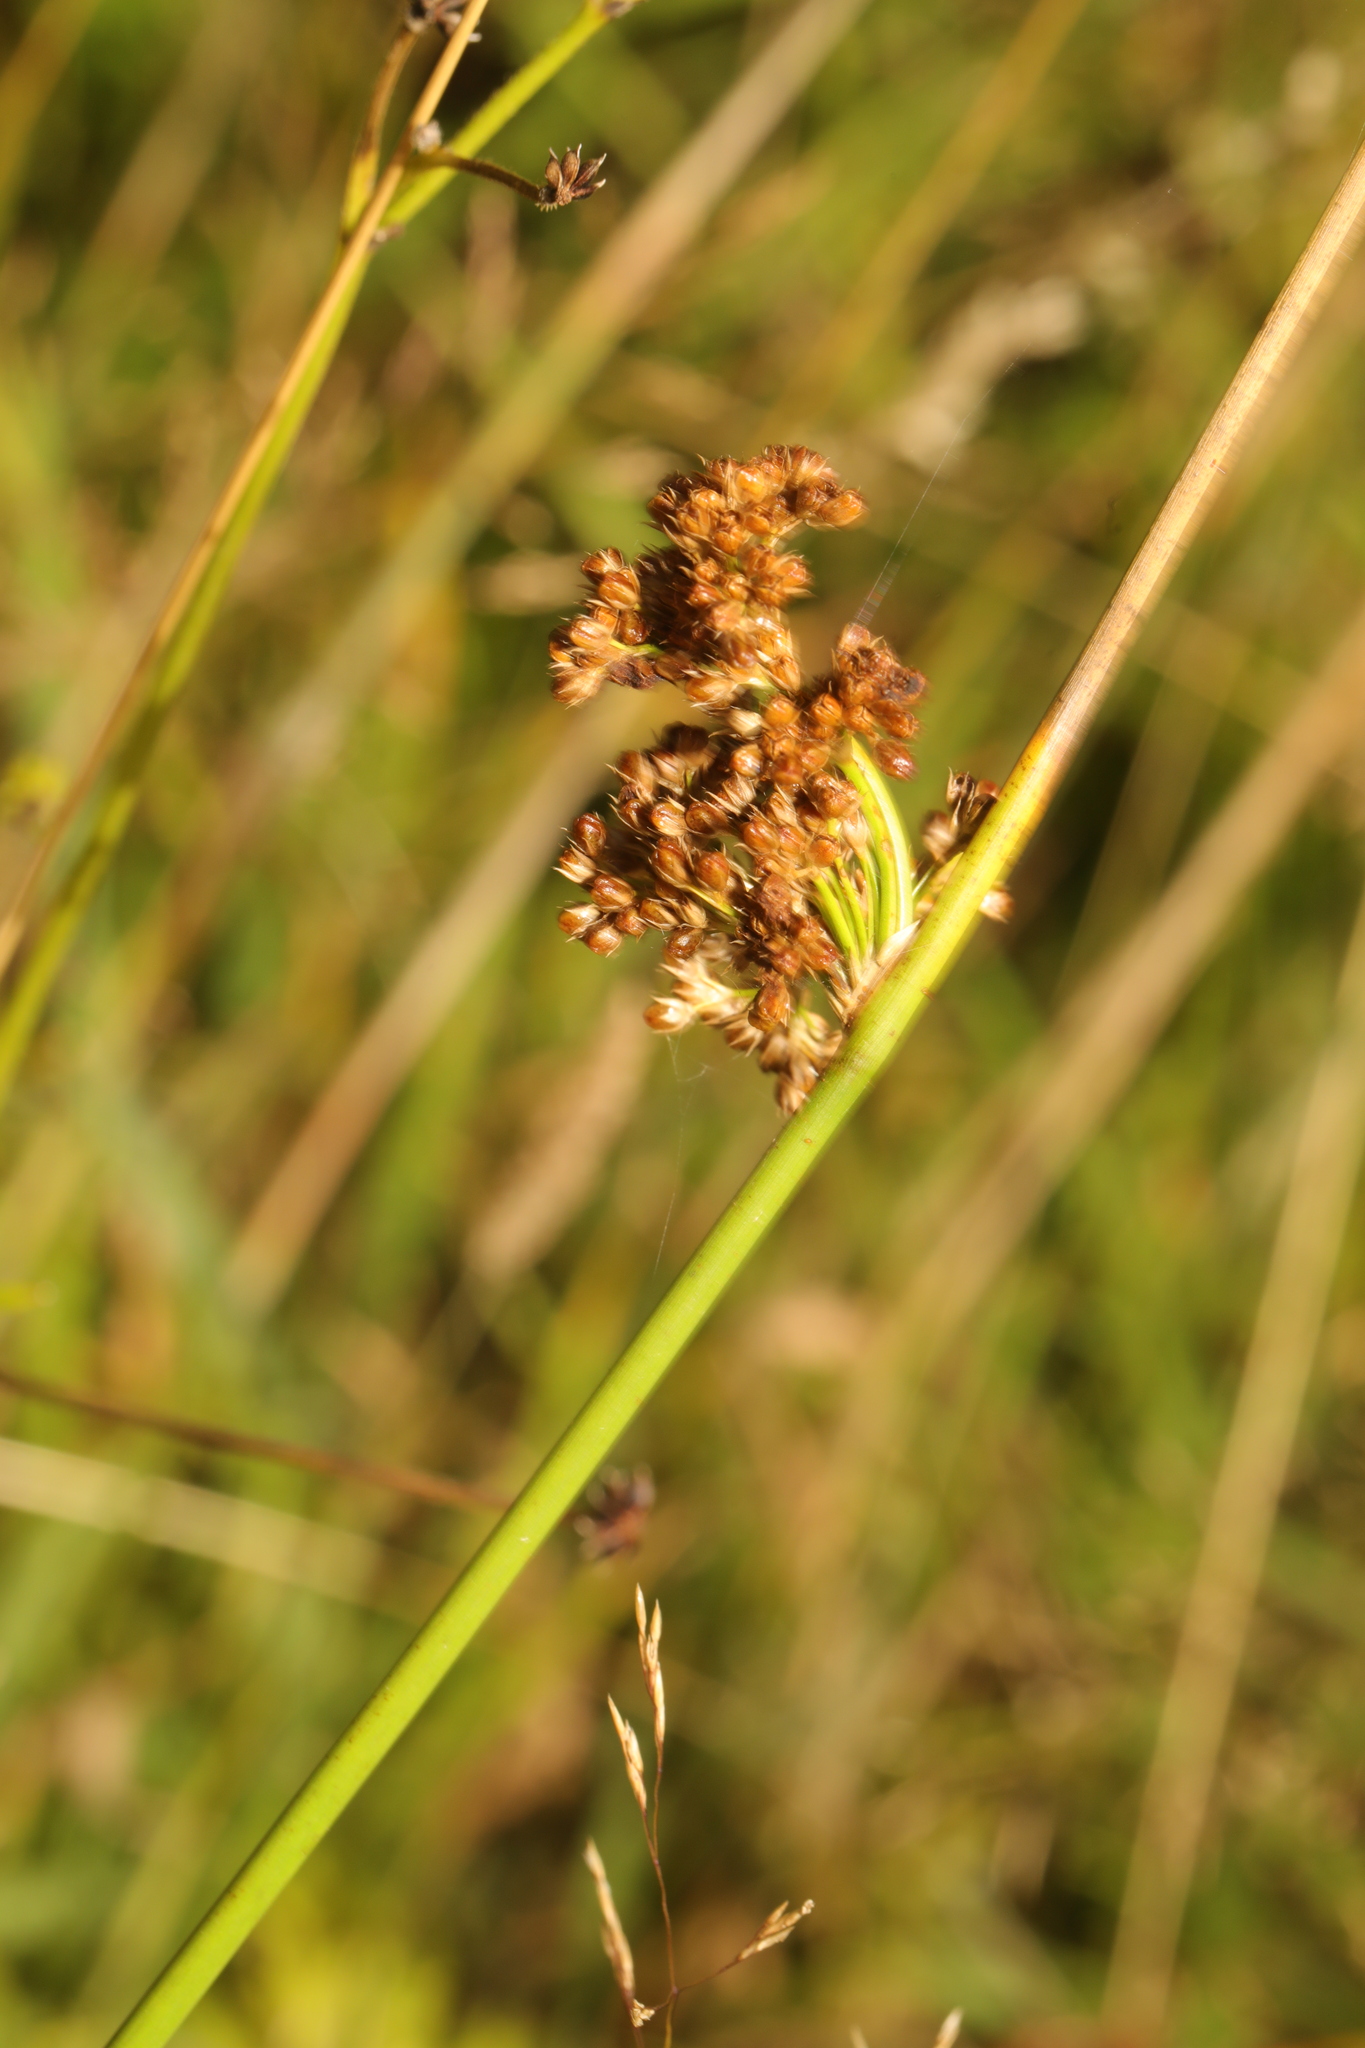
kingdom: Plantae
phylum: Tracheophyta
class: Liliopsida
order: Poales
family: Juncaceae
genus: Juncus
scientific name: Juncus effusus
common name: Soft rush
